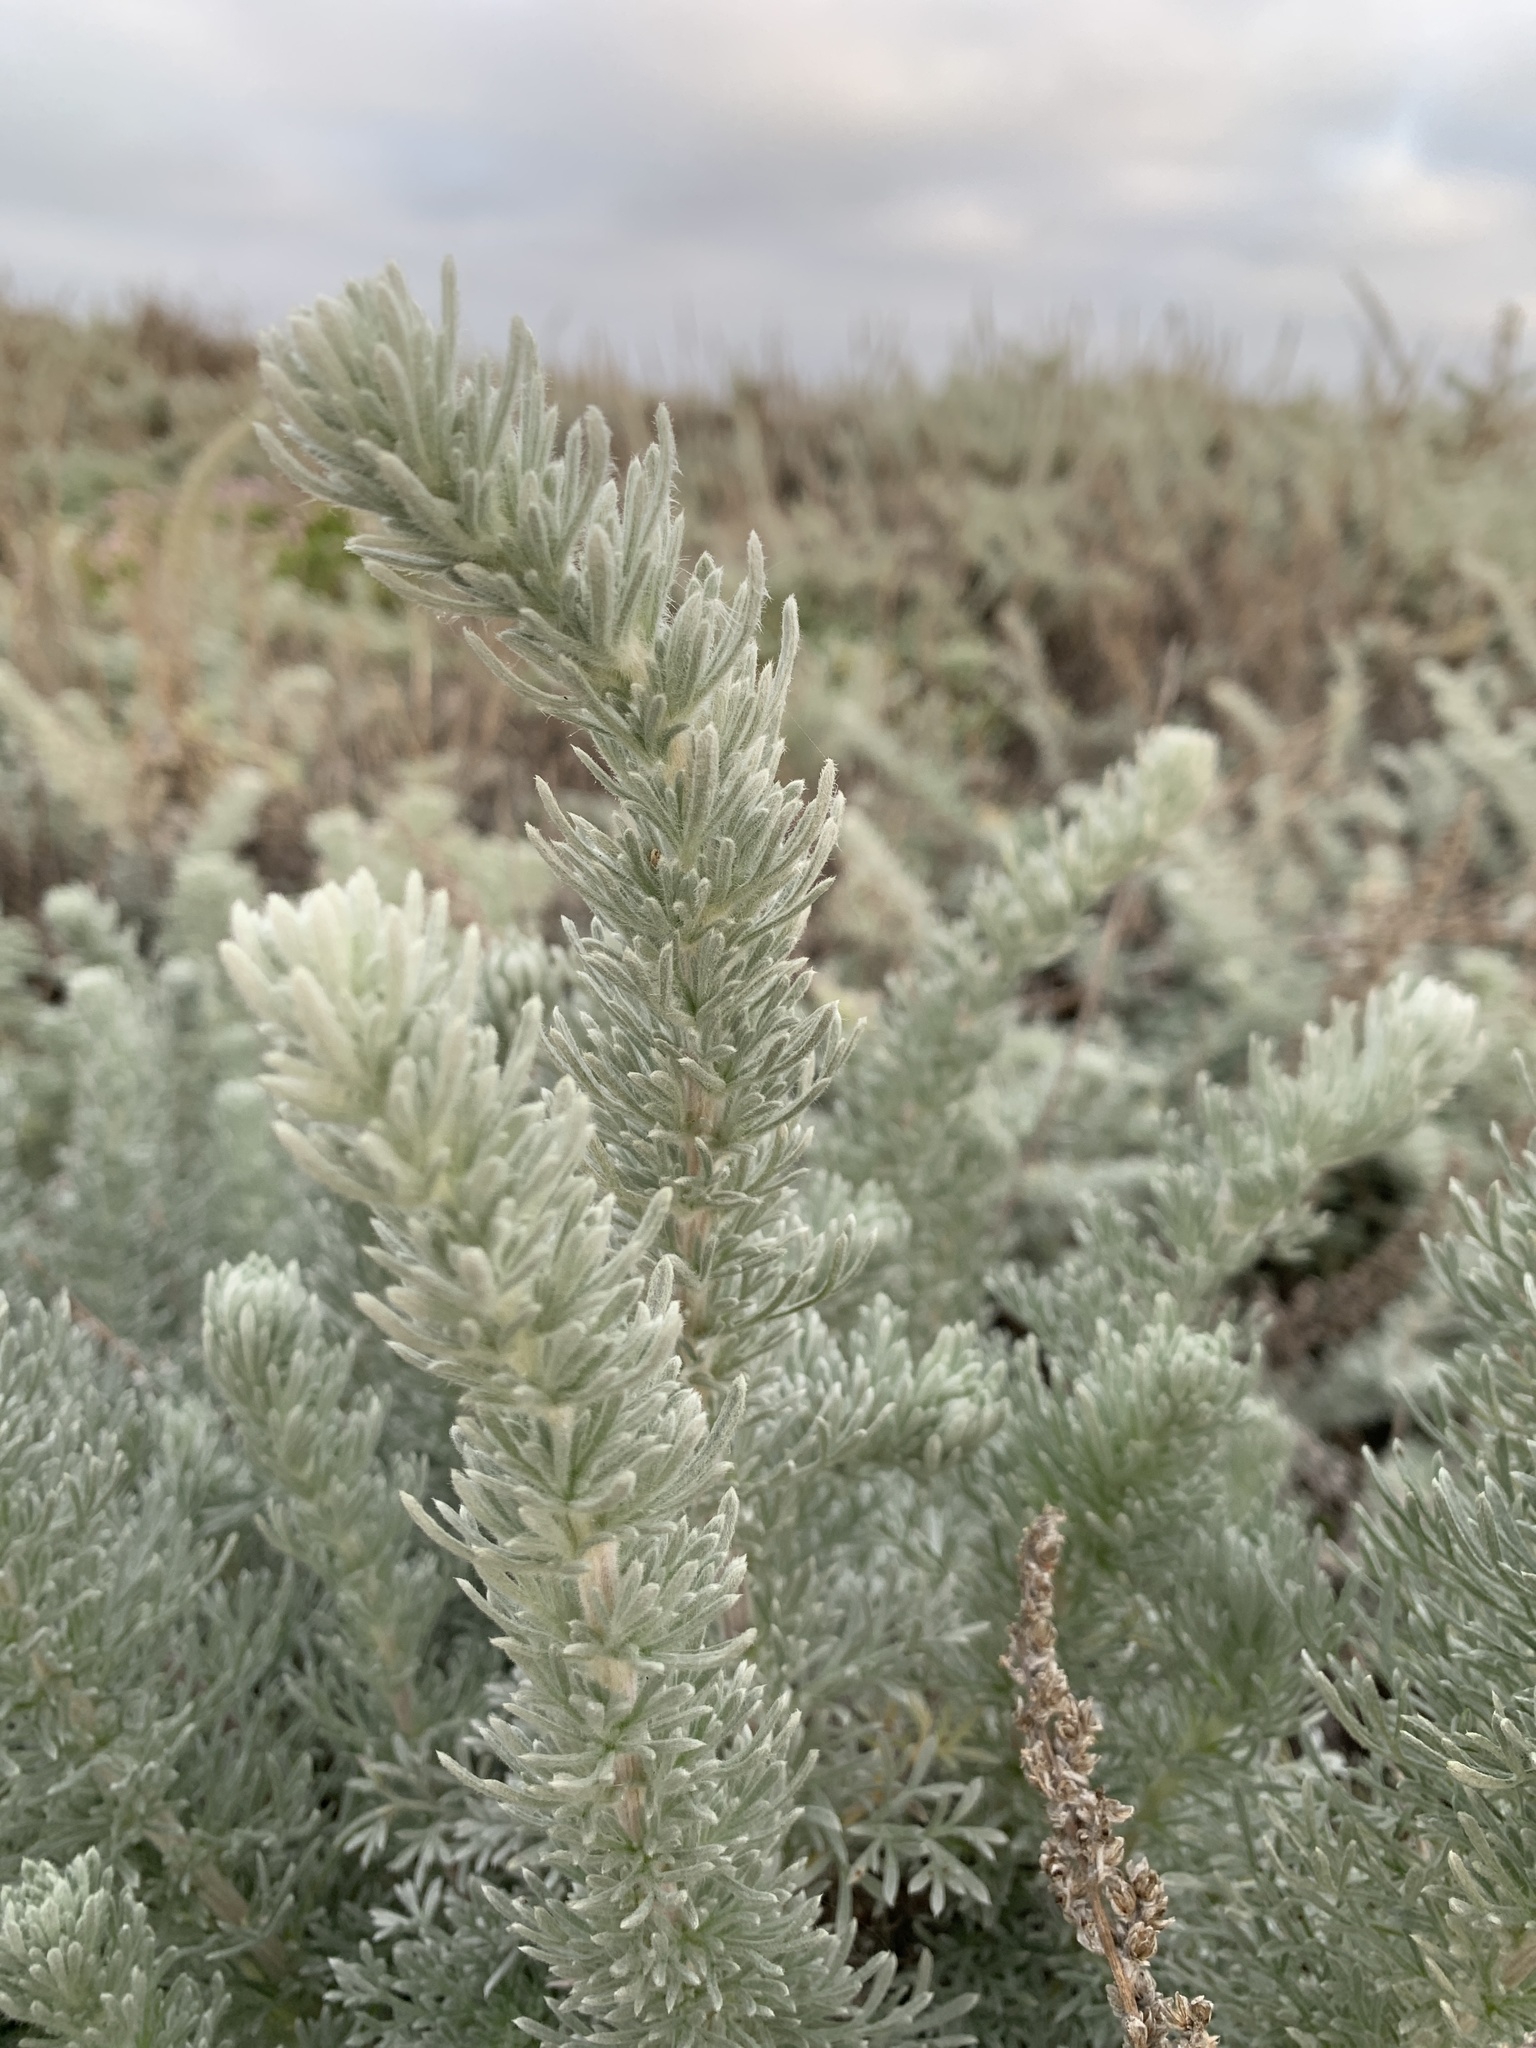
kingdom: Plantae
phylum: Tracheophyta
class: Magnoliopsida
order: Asterales
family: Asteraceae
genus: Artemisia
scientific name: Artemisia pycnocephala
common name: Coastal sagewort
